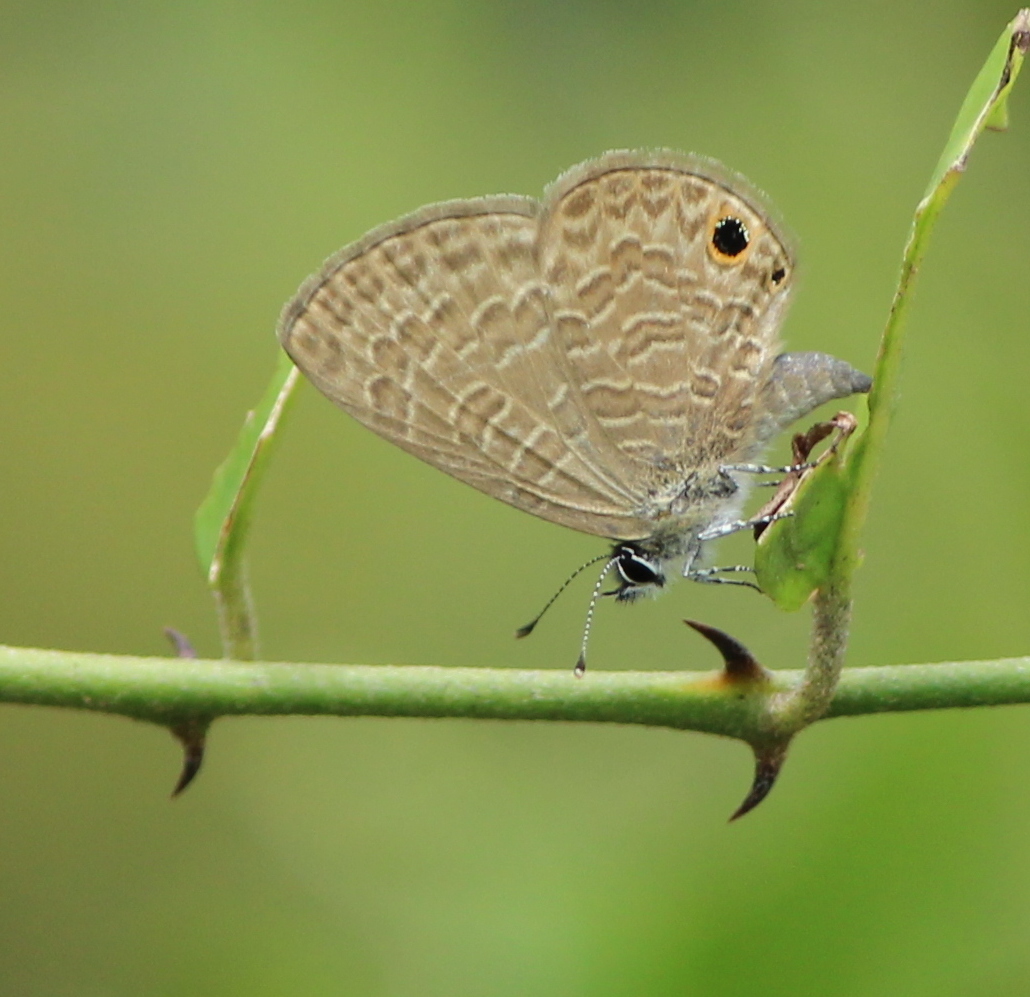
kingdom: Animalia
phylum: Arthropoda
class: Insecta
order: Lepidoptera
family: Lycaenidae
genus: Prosotas
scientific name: Prosotas dubiosa
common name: Tailless lineblue
